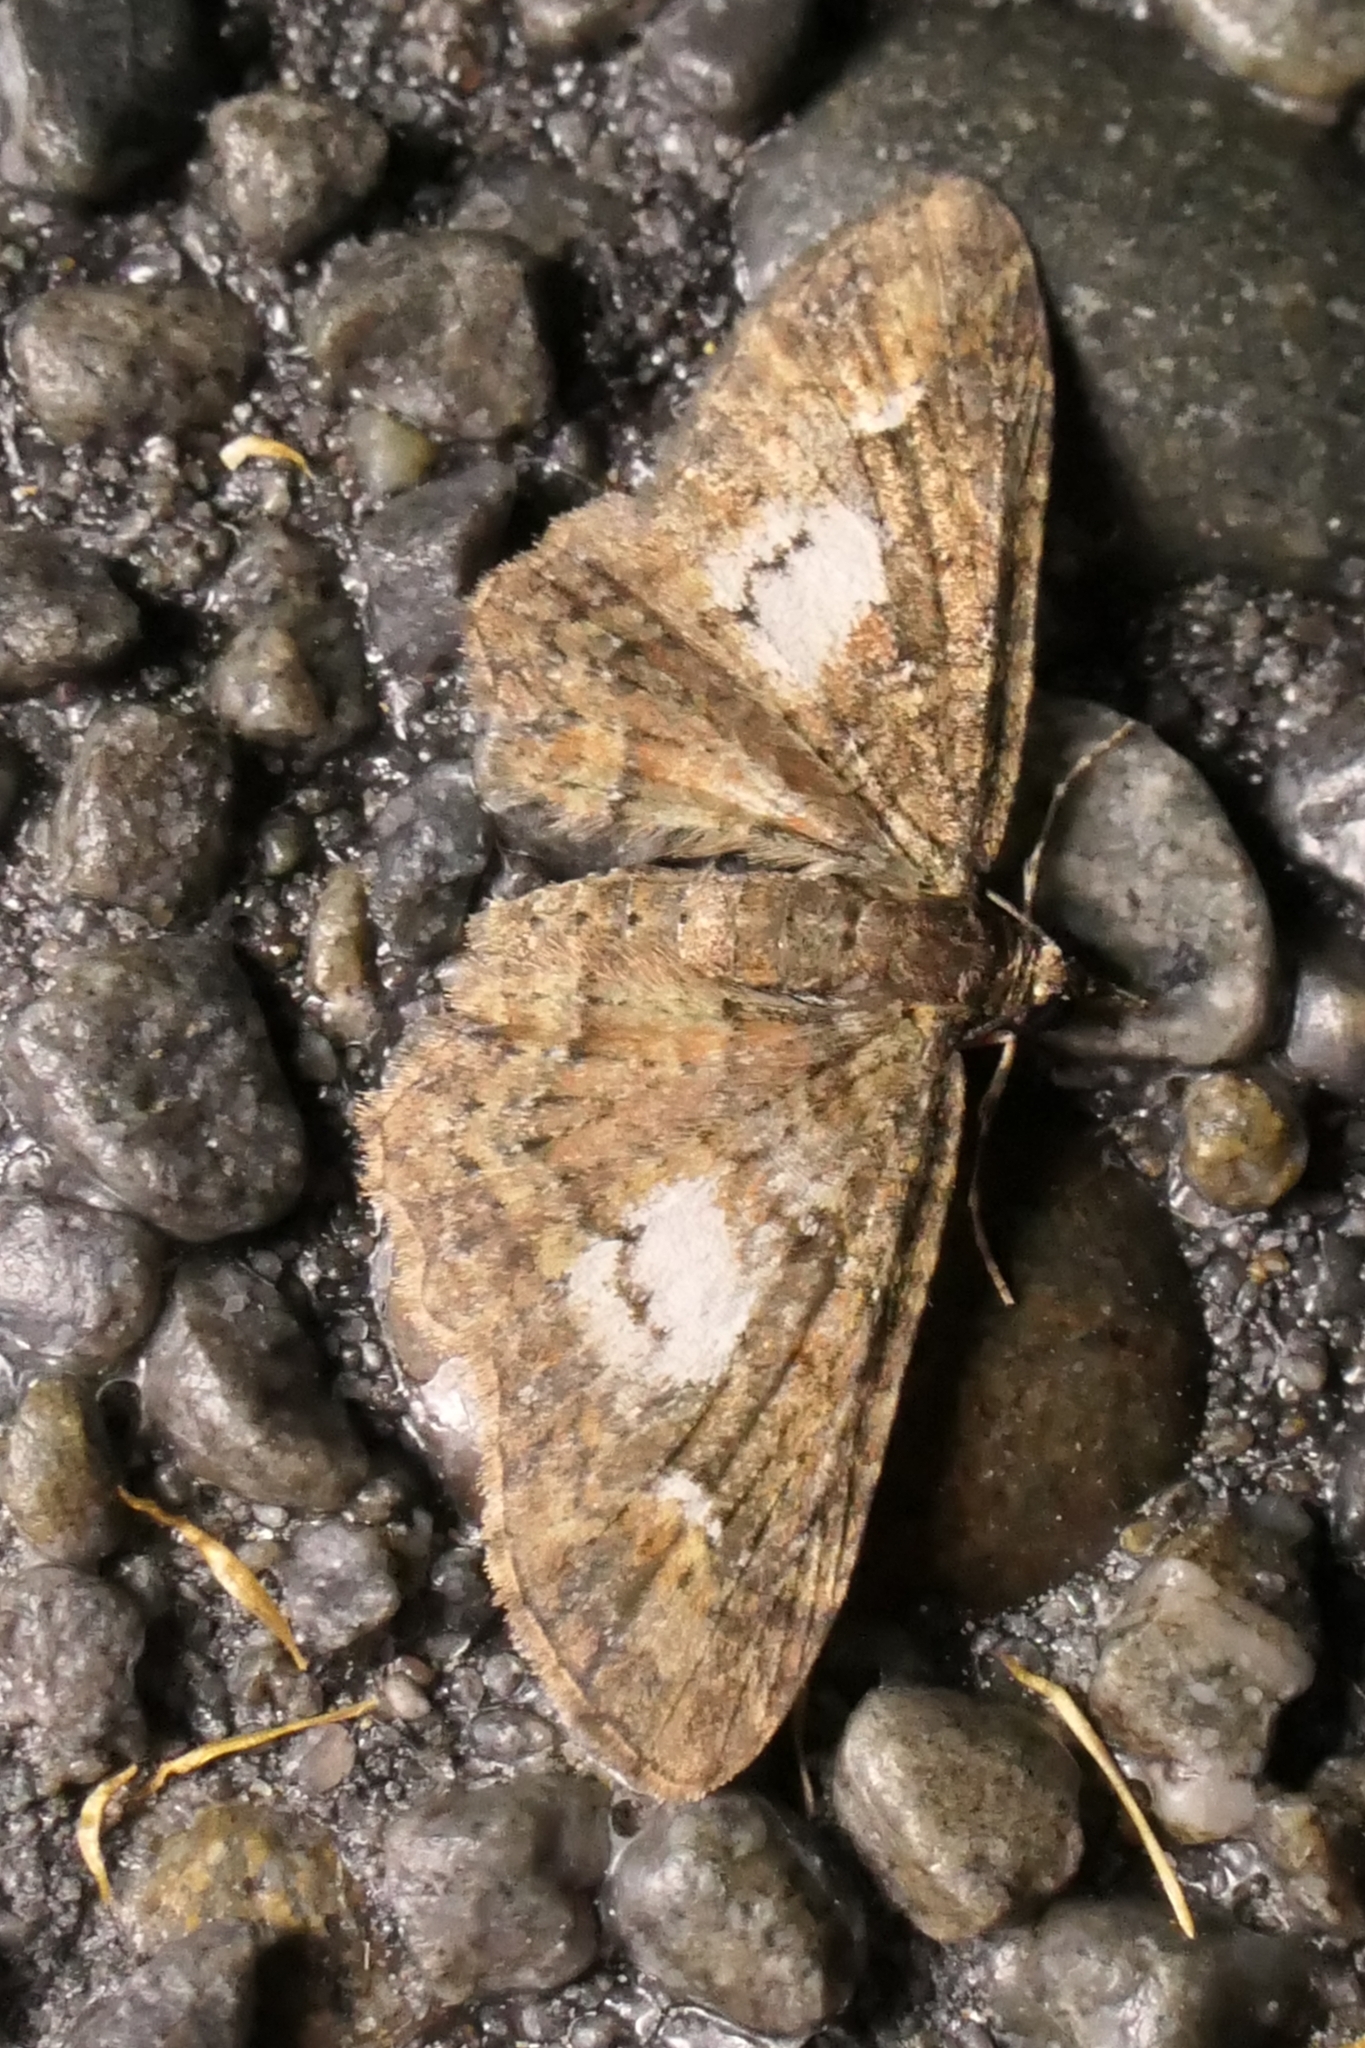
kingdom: Animalia
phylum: Arthropoda
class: Insecta
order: Lepidoptera
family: Geometridae
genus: Pasiphila
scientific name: Pasiphila lunata
